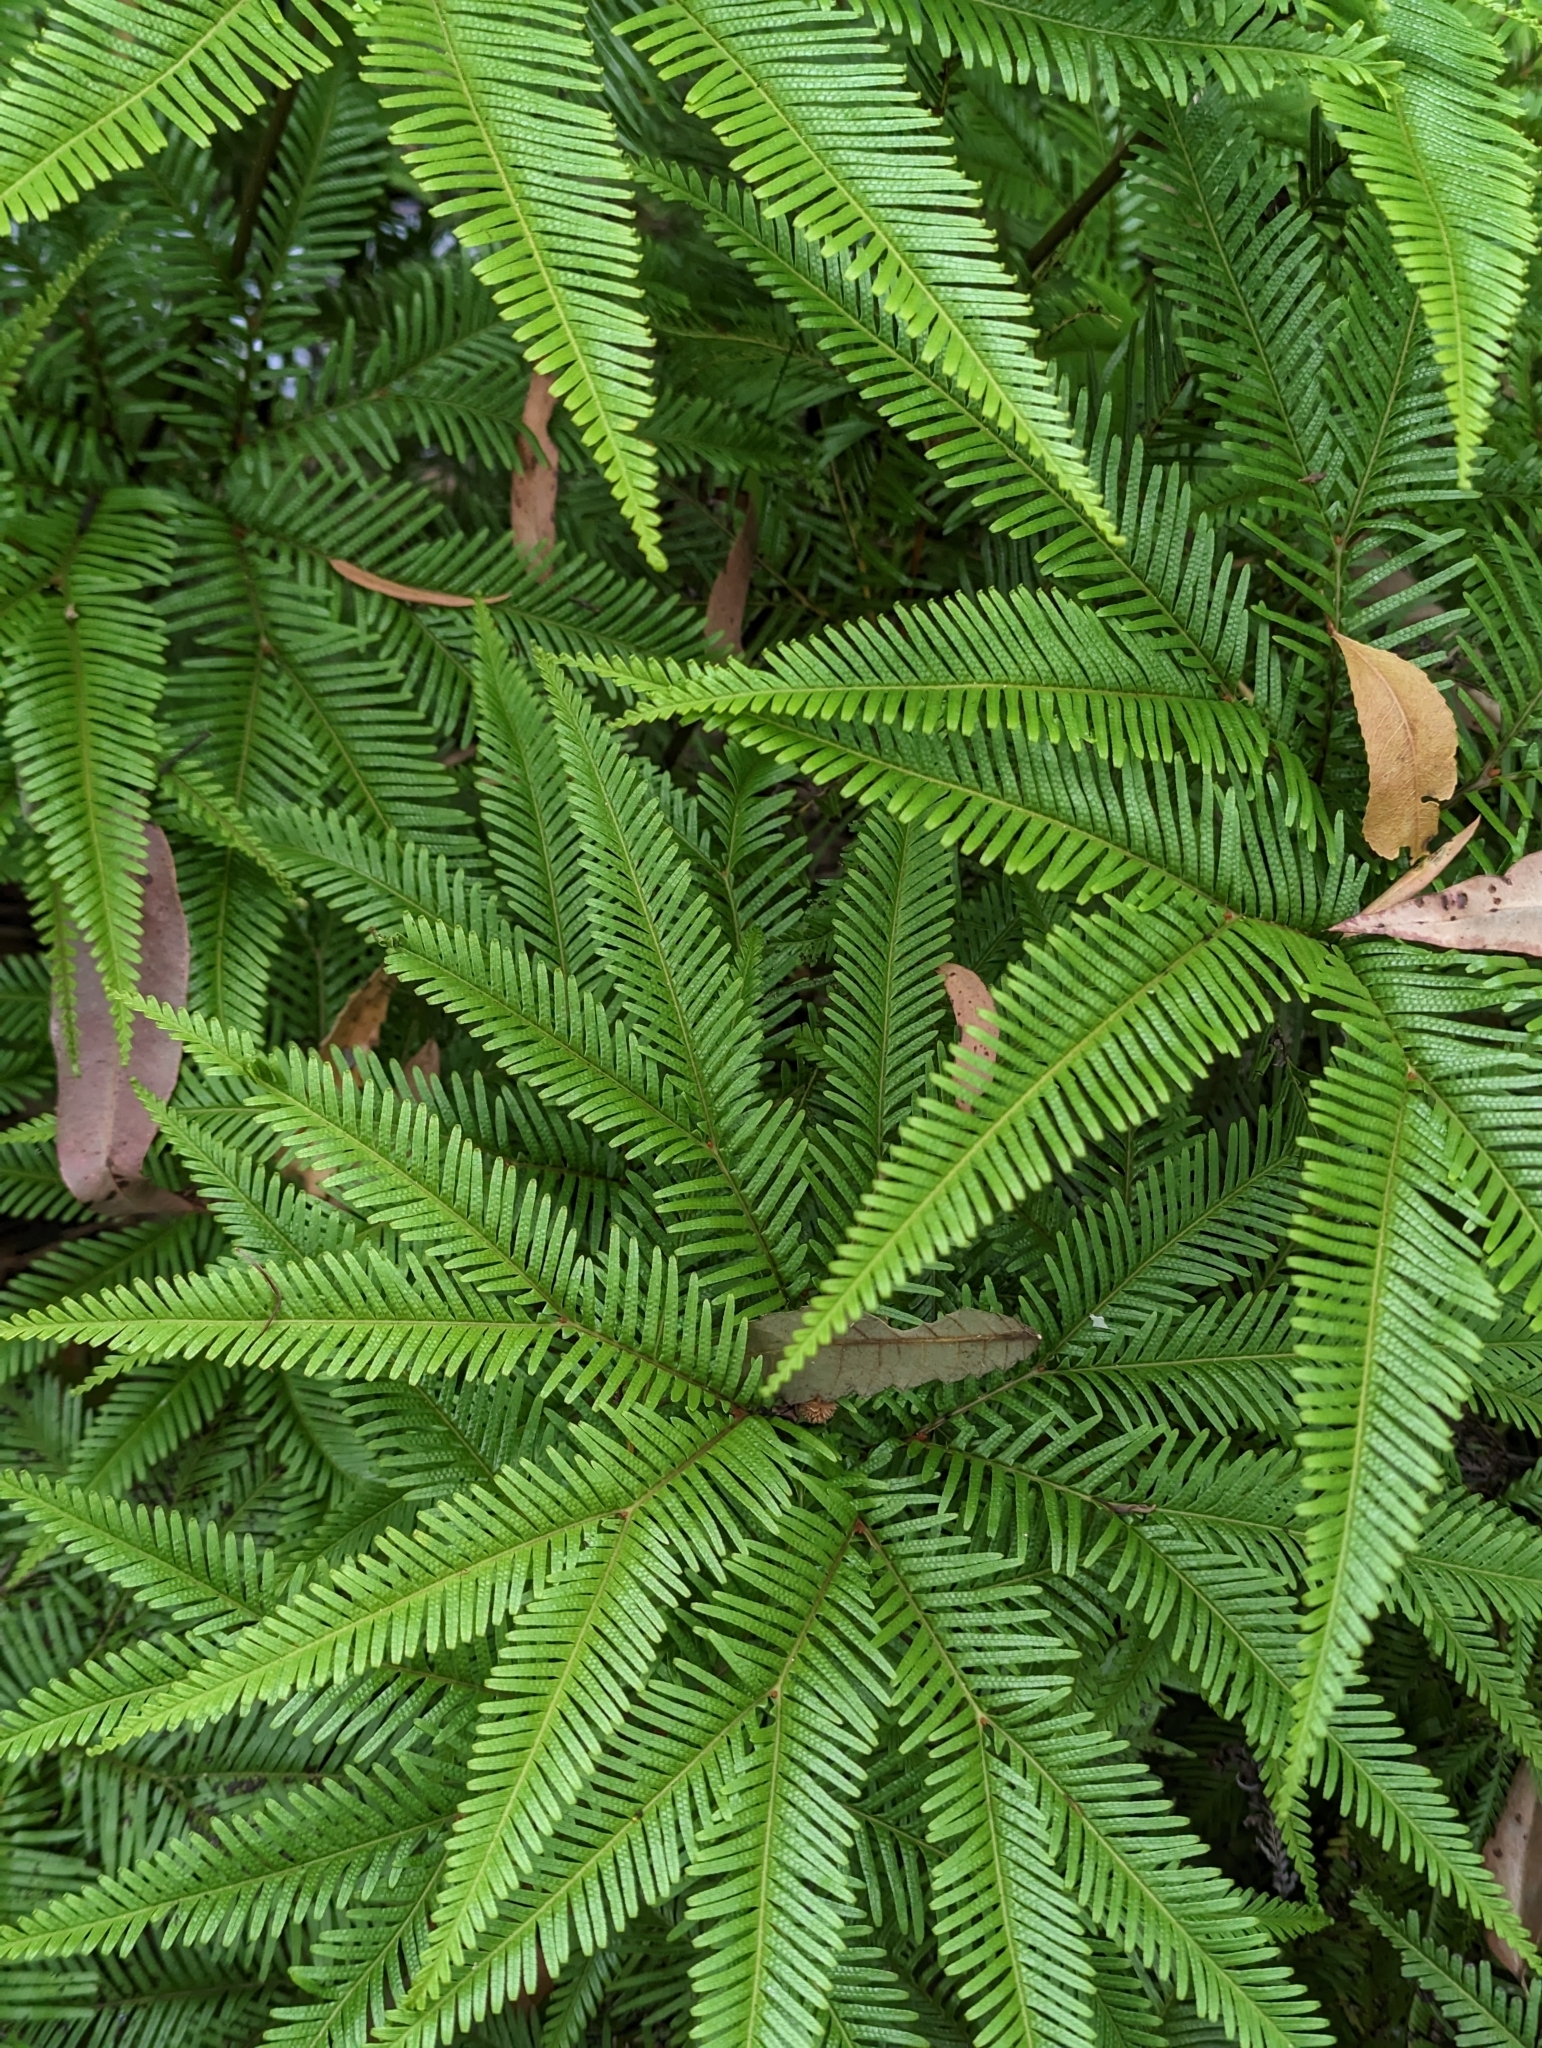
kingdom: Plantae
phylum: Tracheophyta
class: Polypodiopsida
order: Gleicheniales
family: Gleicheniaceae
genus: Sticherus
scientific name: Sticherus flabellatus
